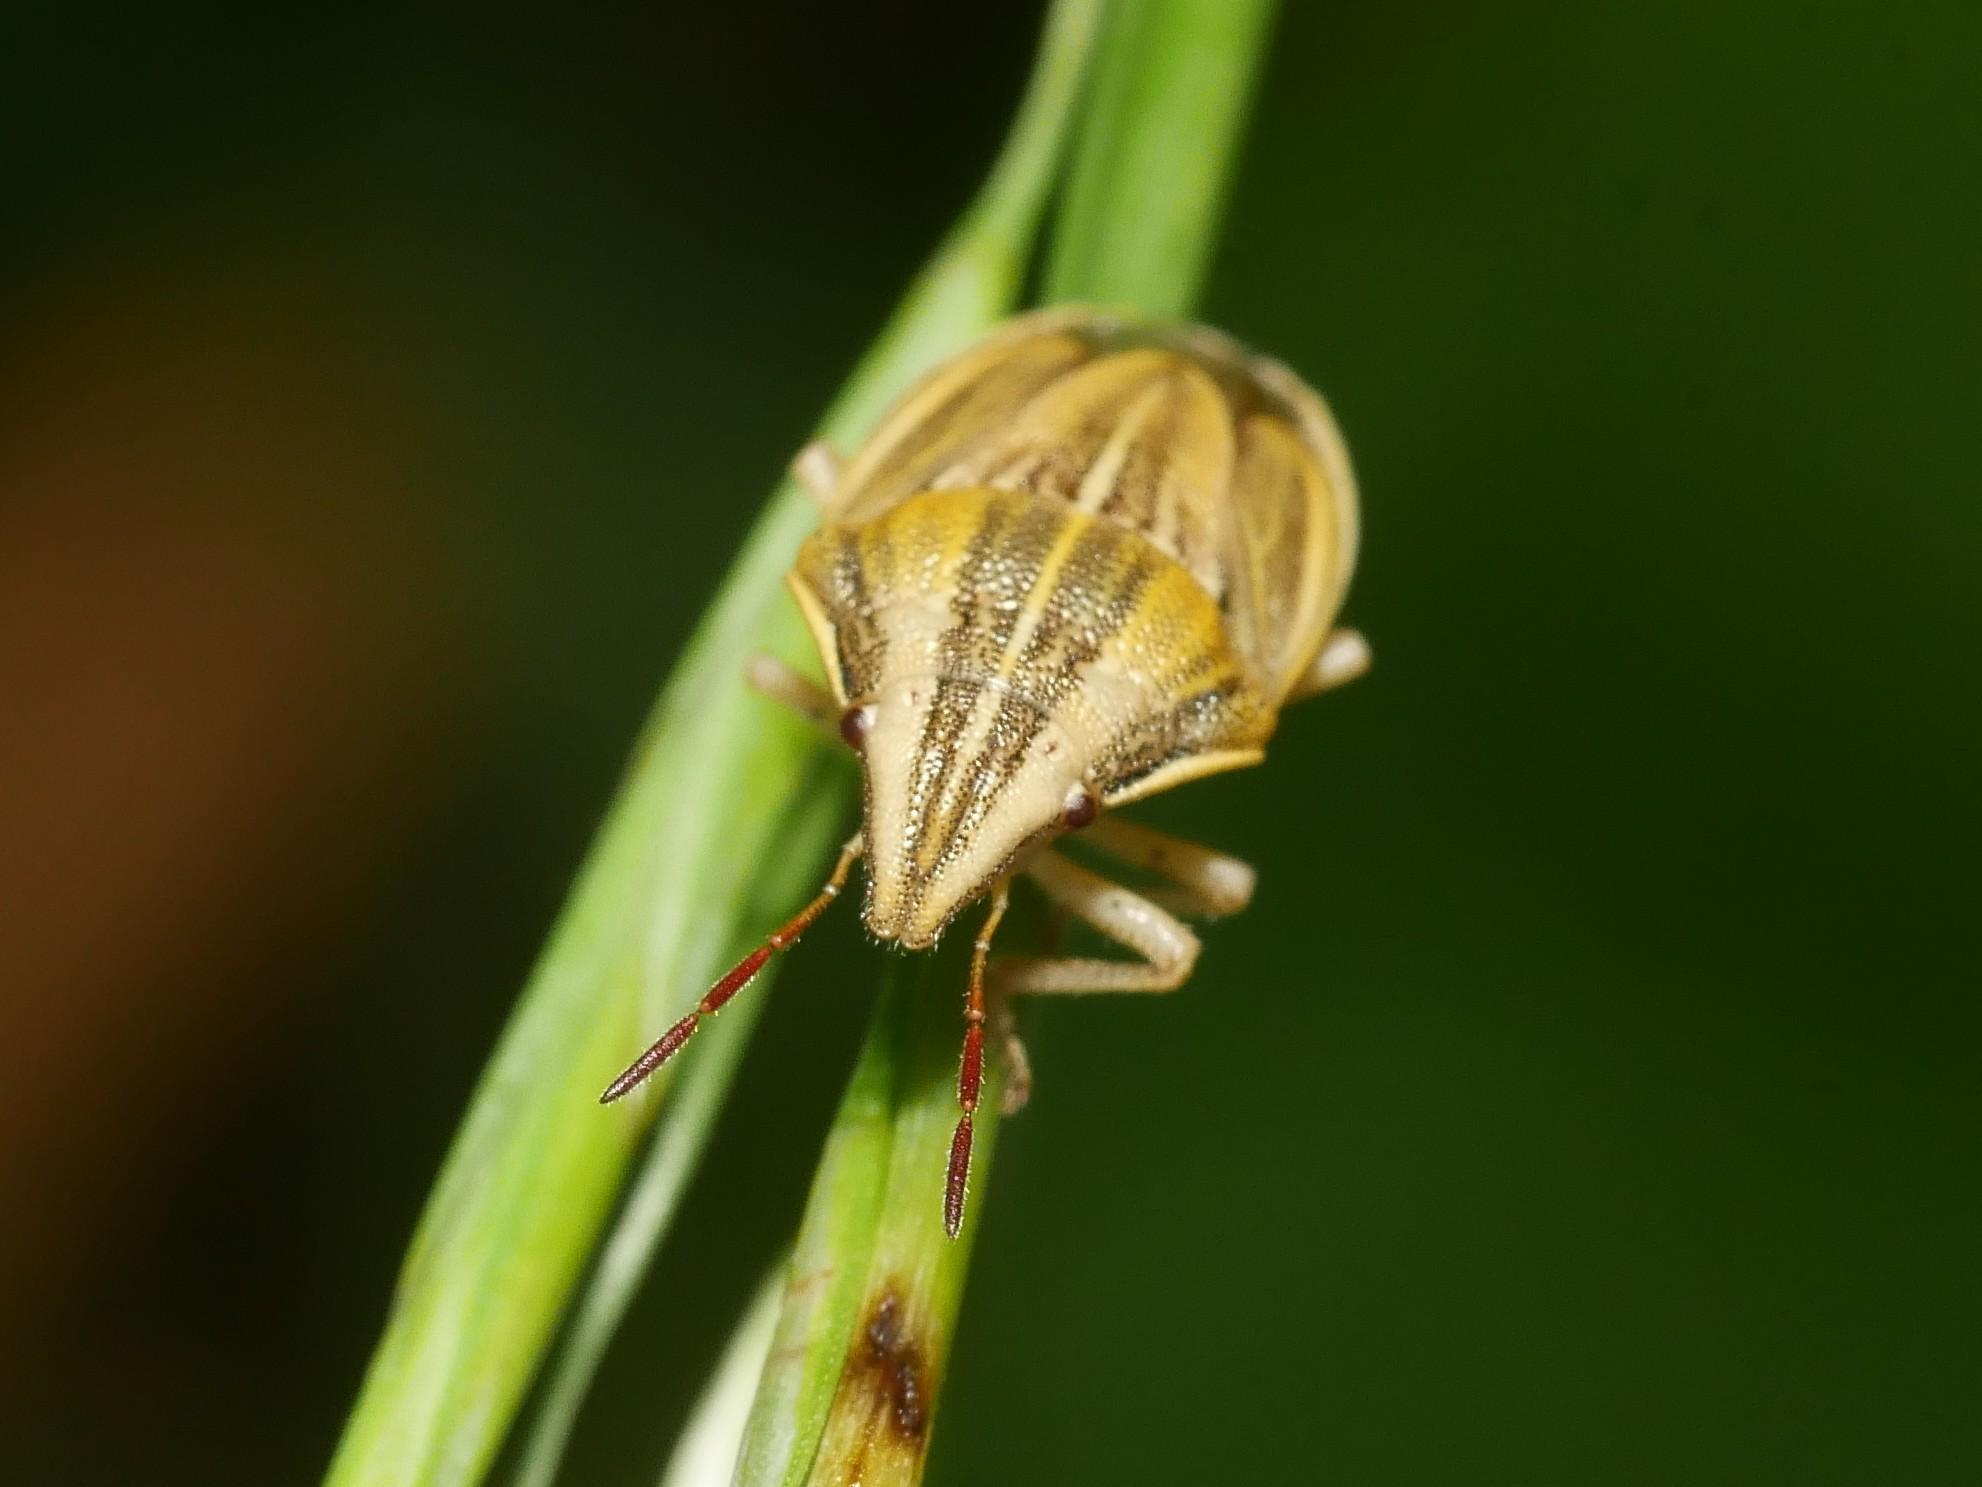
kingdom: Animalia
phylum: Arthropoda
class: Insecta
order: Hemiptera
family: Pentatomidae
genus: Aelia
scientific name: Aelia acuminata
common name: Bishop's mitre
